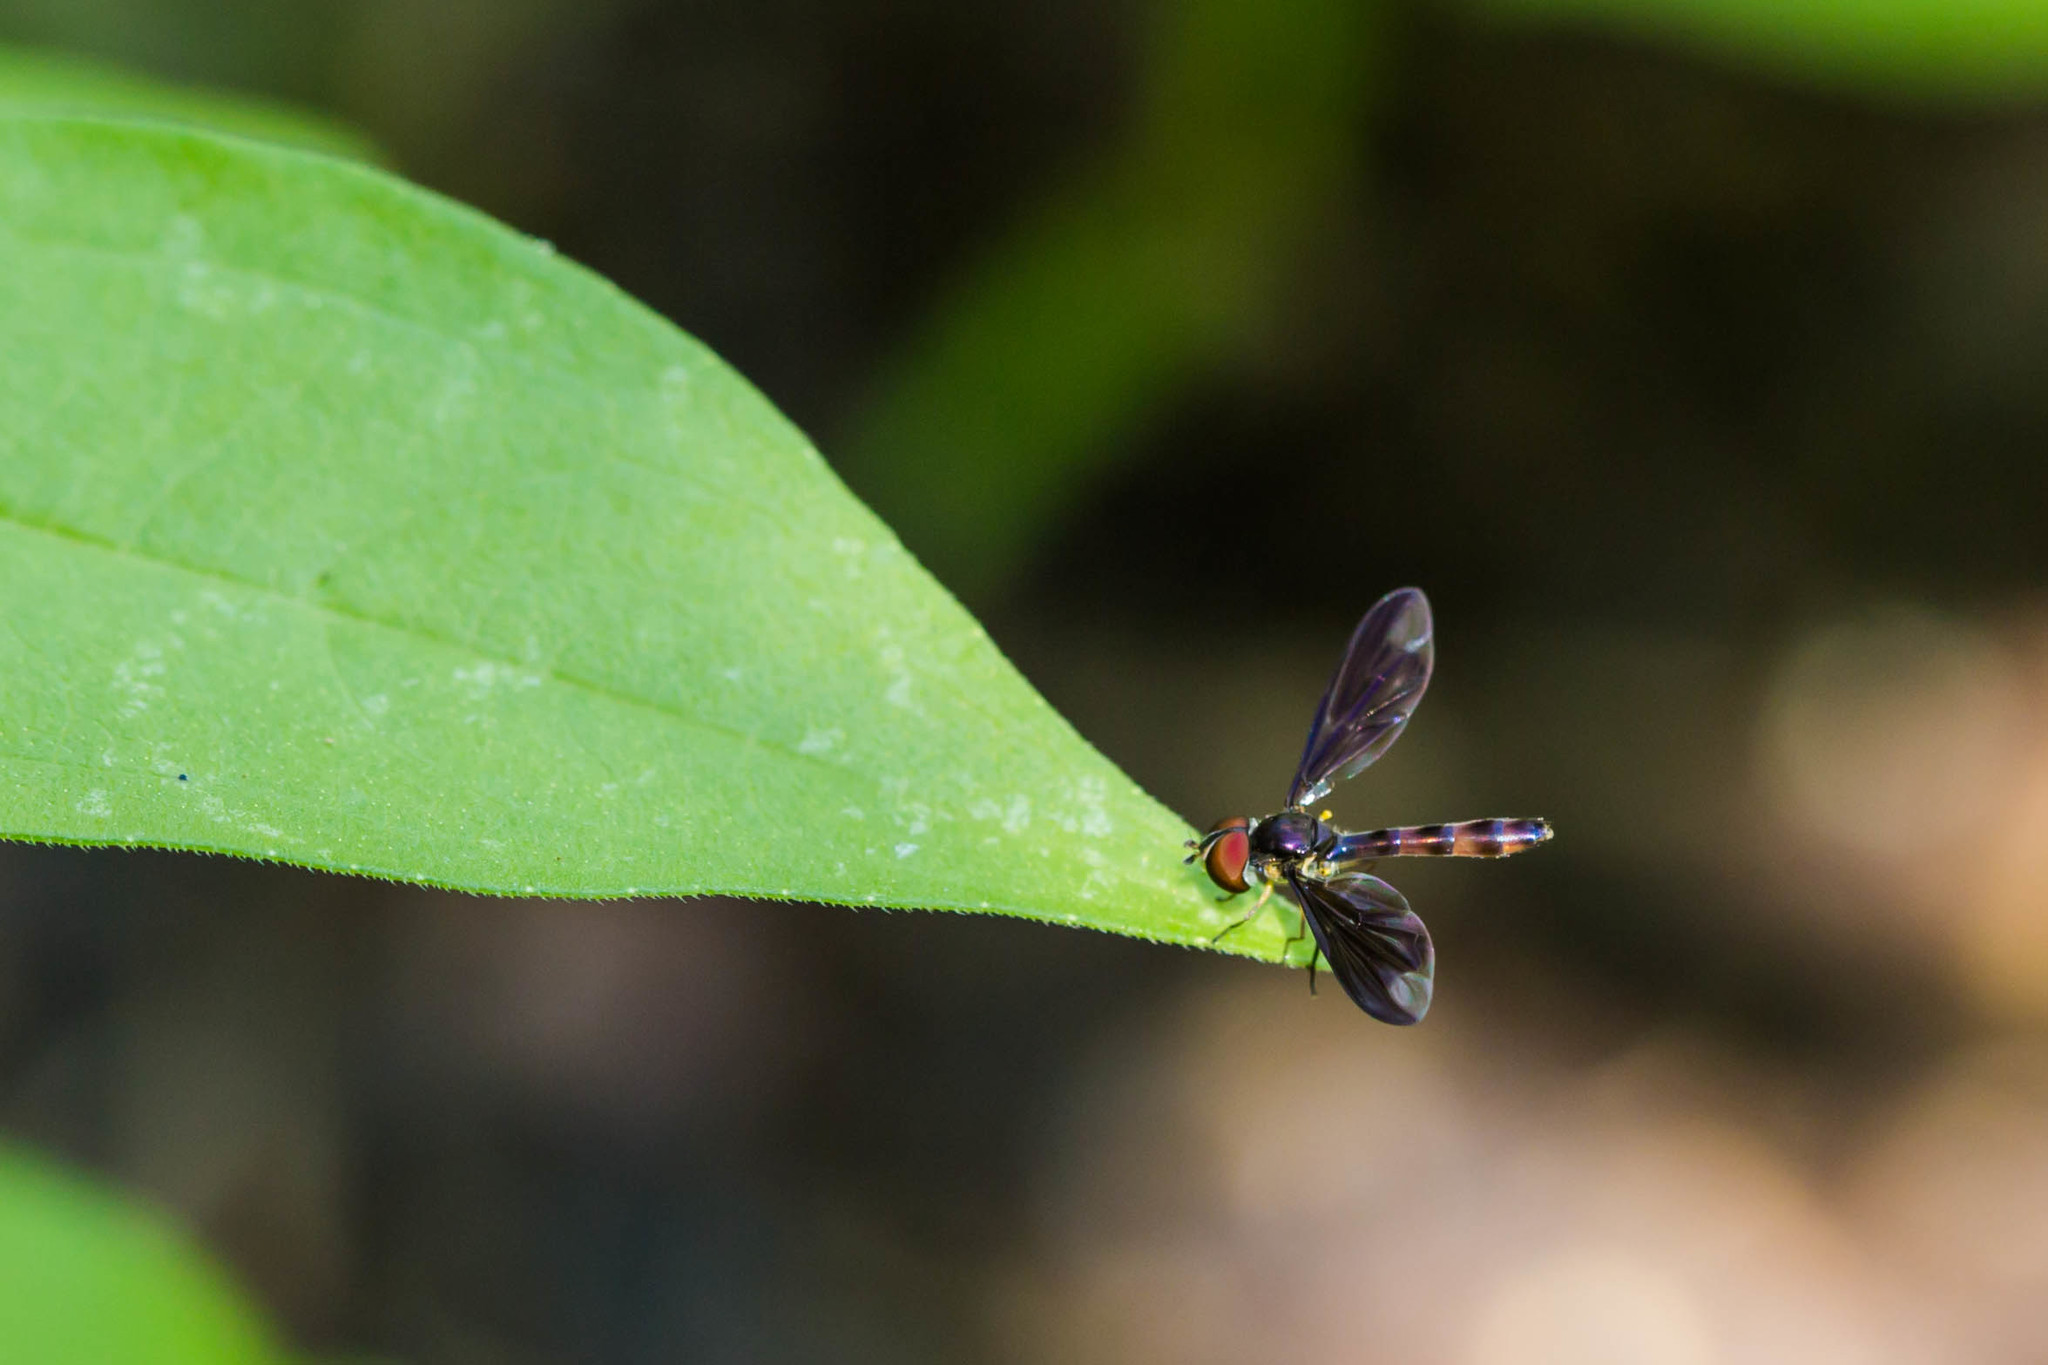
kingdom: Animalia
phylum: Arthropoda
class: Insecta
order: Diptera
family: Syrphidae
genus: Ocyptamus
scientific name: Ocyptamus fuscipennis
